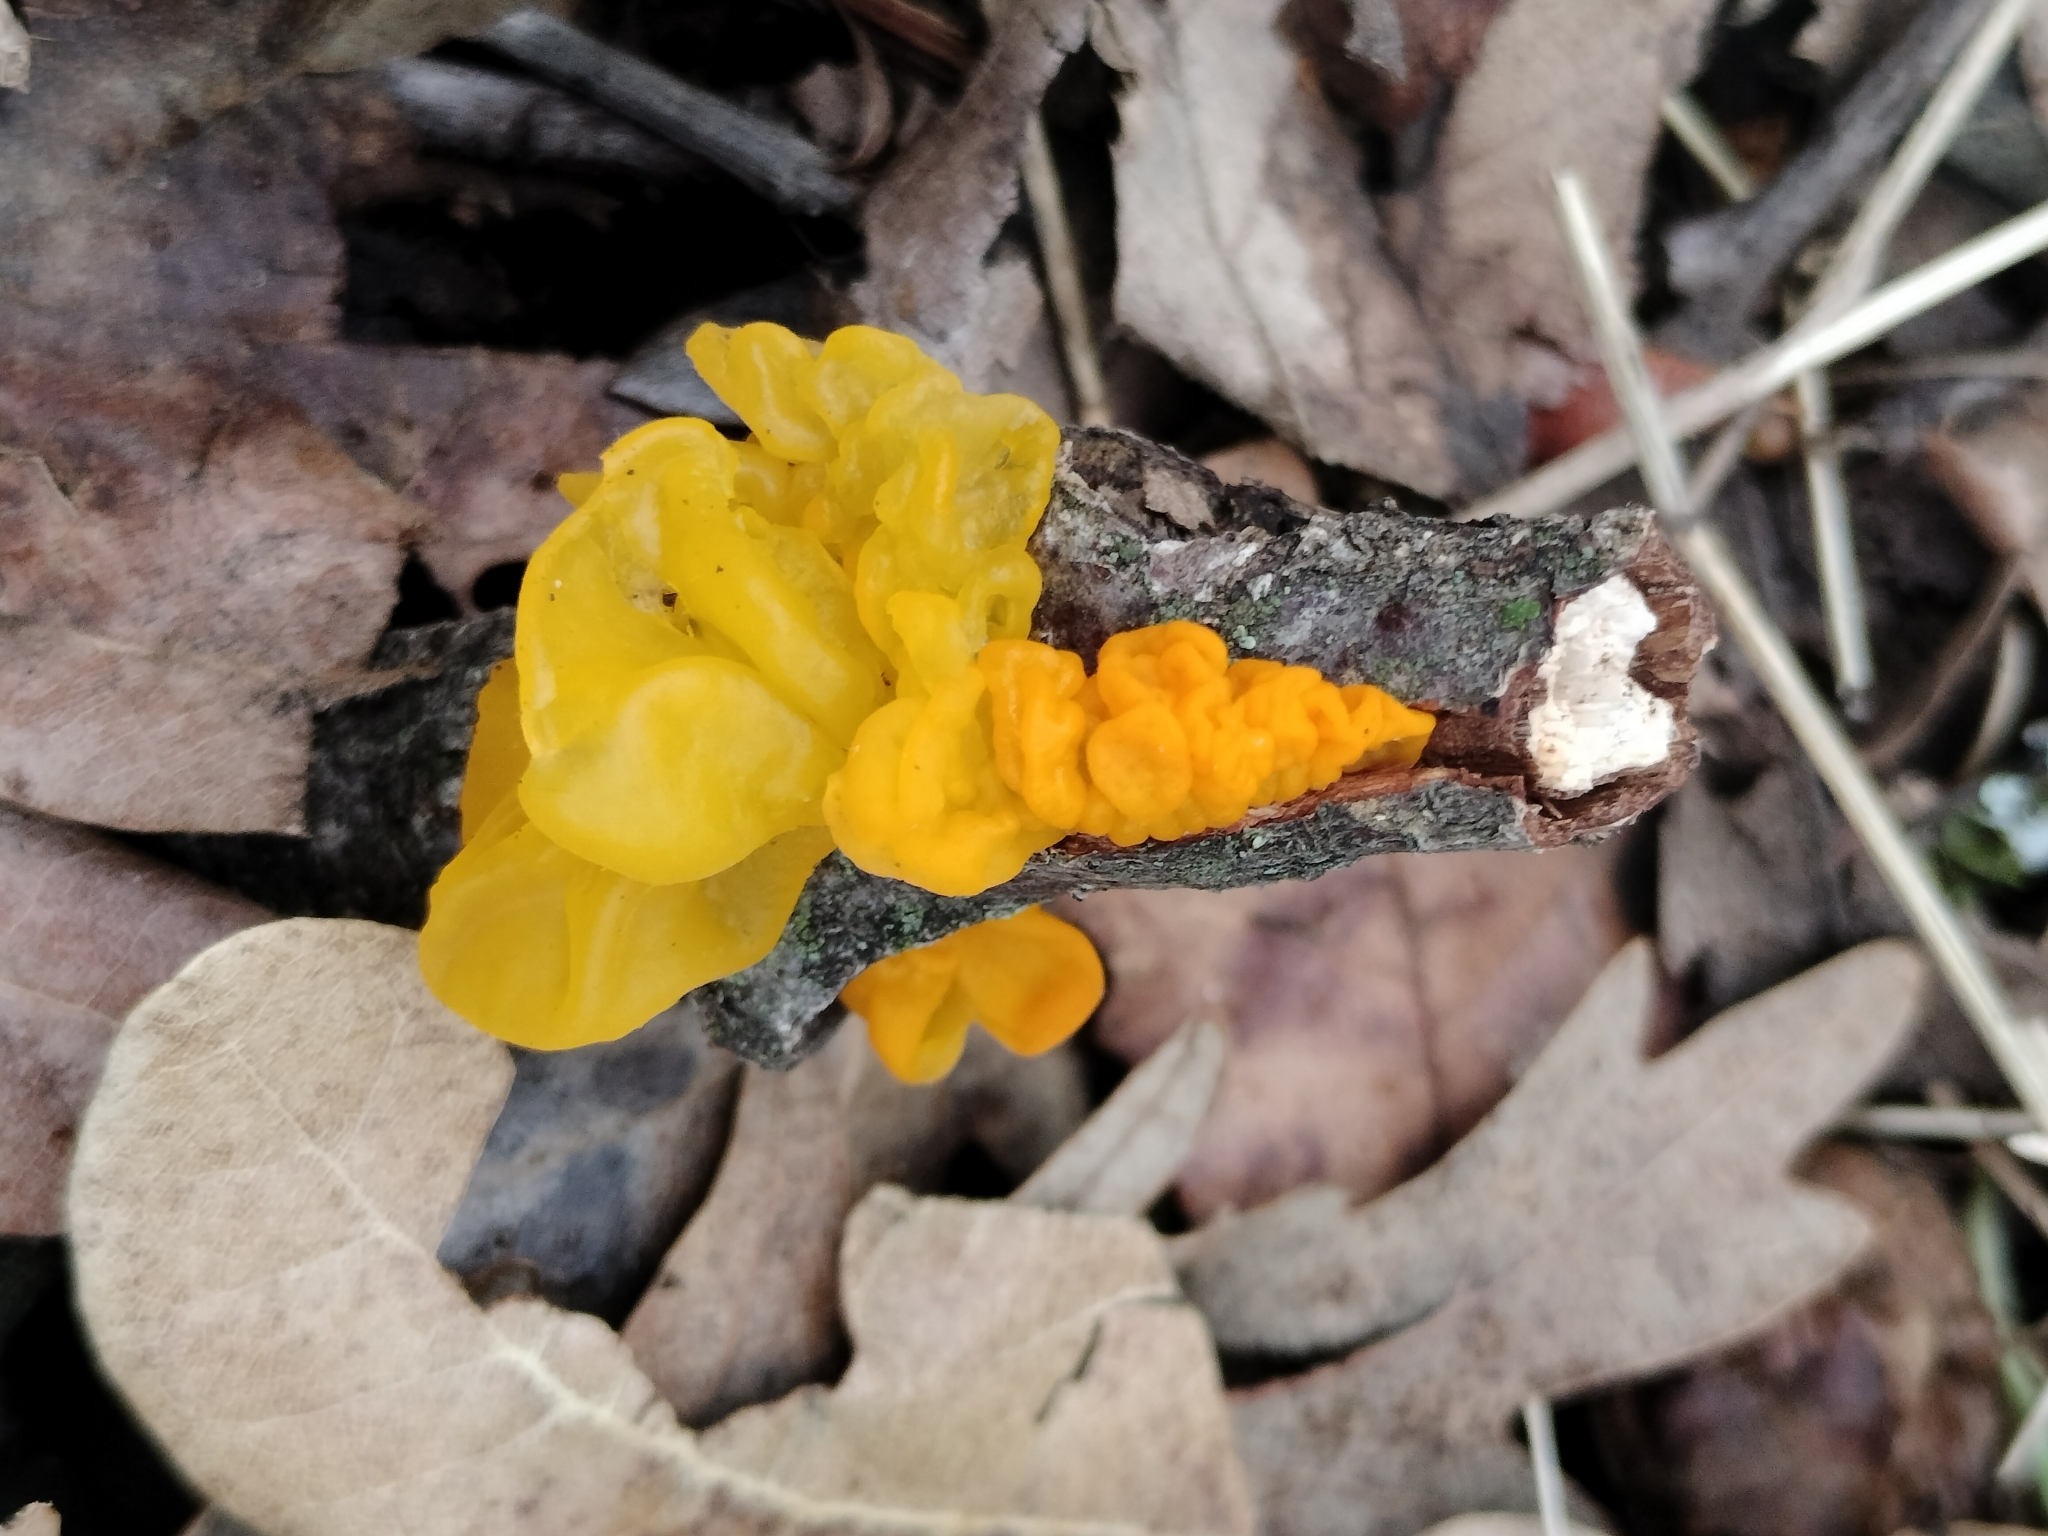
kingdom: Fungi
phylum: Basidiomycota
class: Tremellomycetes
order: Tremellales
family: Tremellaceae
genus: Tremella
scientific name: Tremella mesenterica
